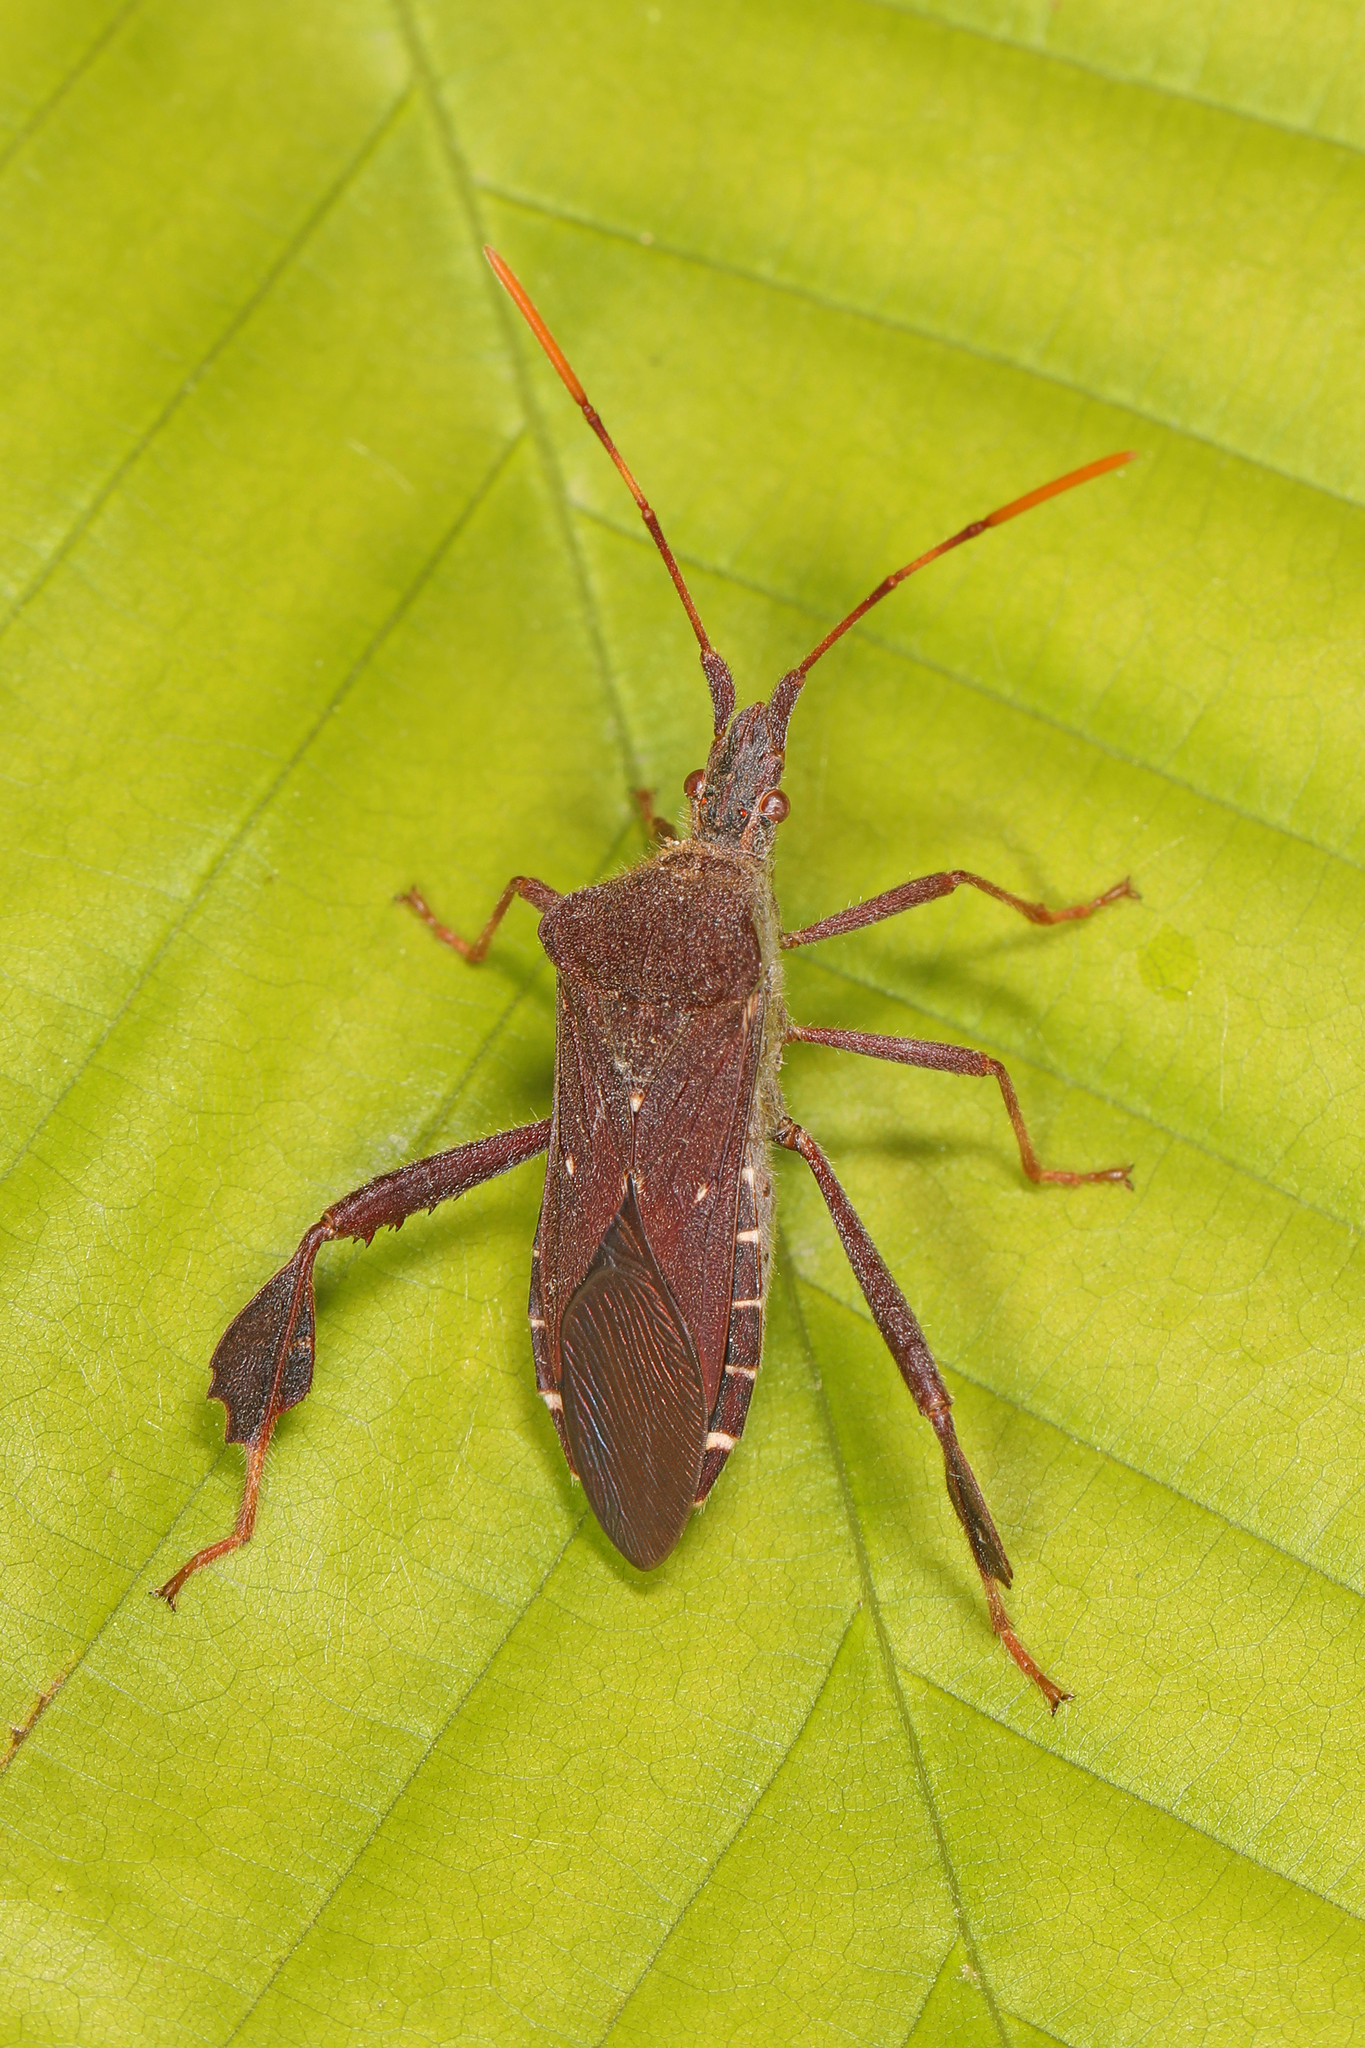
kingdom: Animalia
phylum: Arthropoda
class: Insecta
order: Hemiptera
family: Coreidae
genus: Leptoglossus
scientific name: Leptoglossus oppositus
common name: Northern leaf-footed bug
